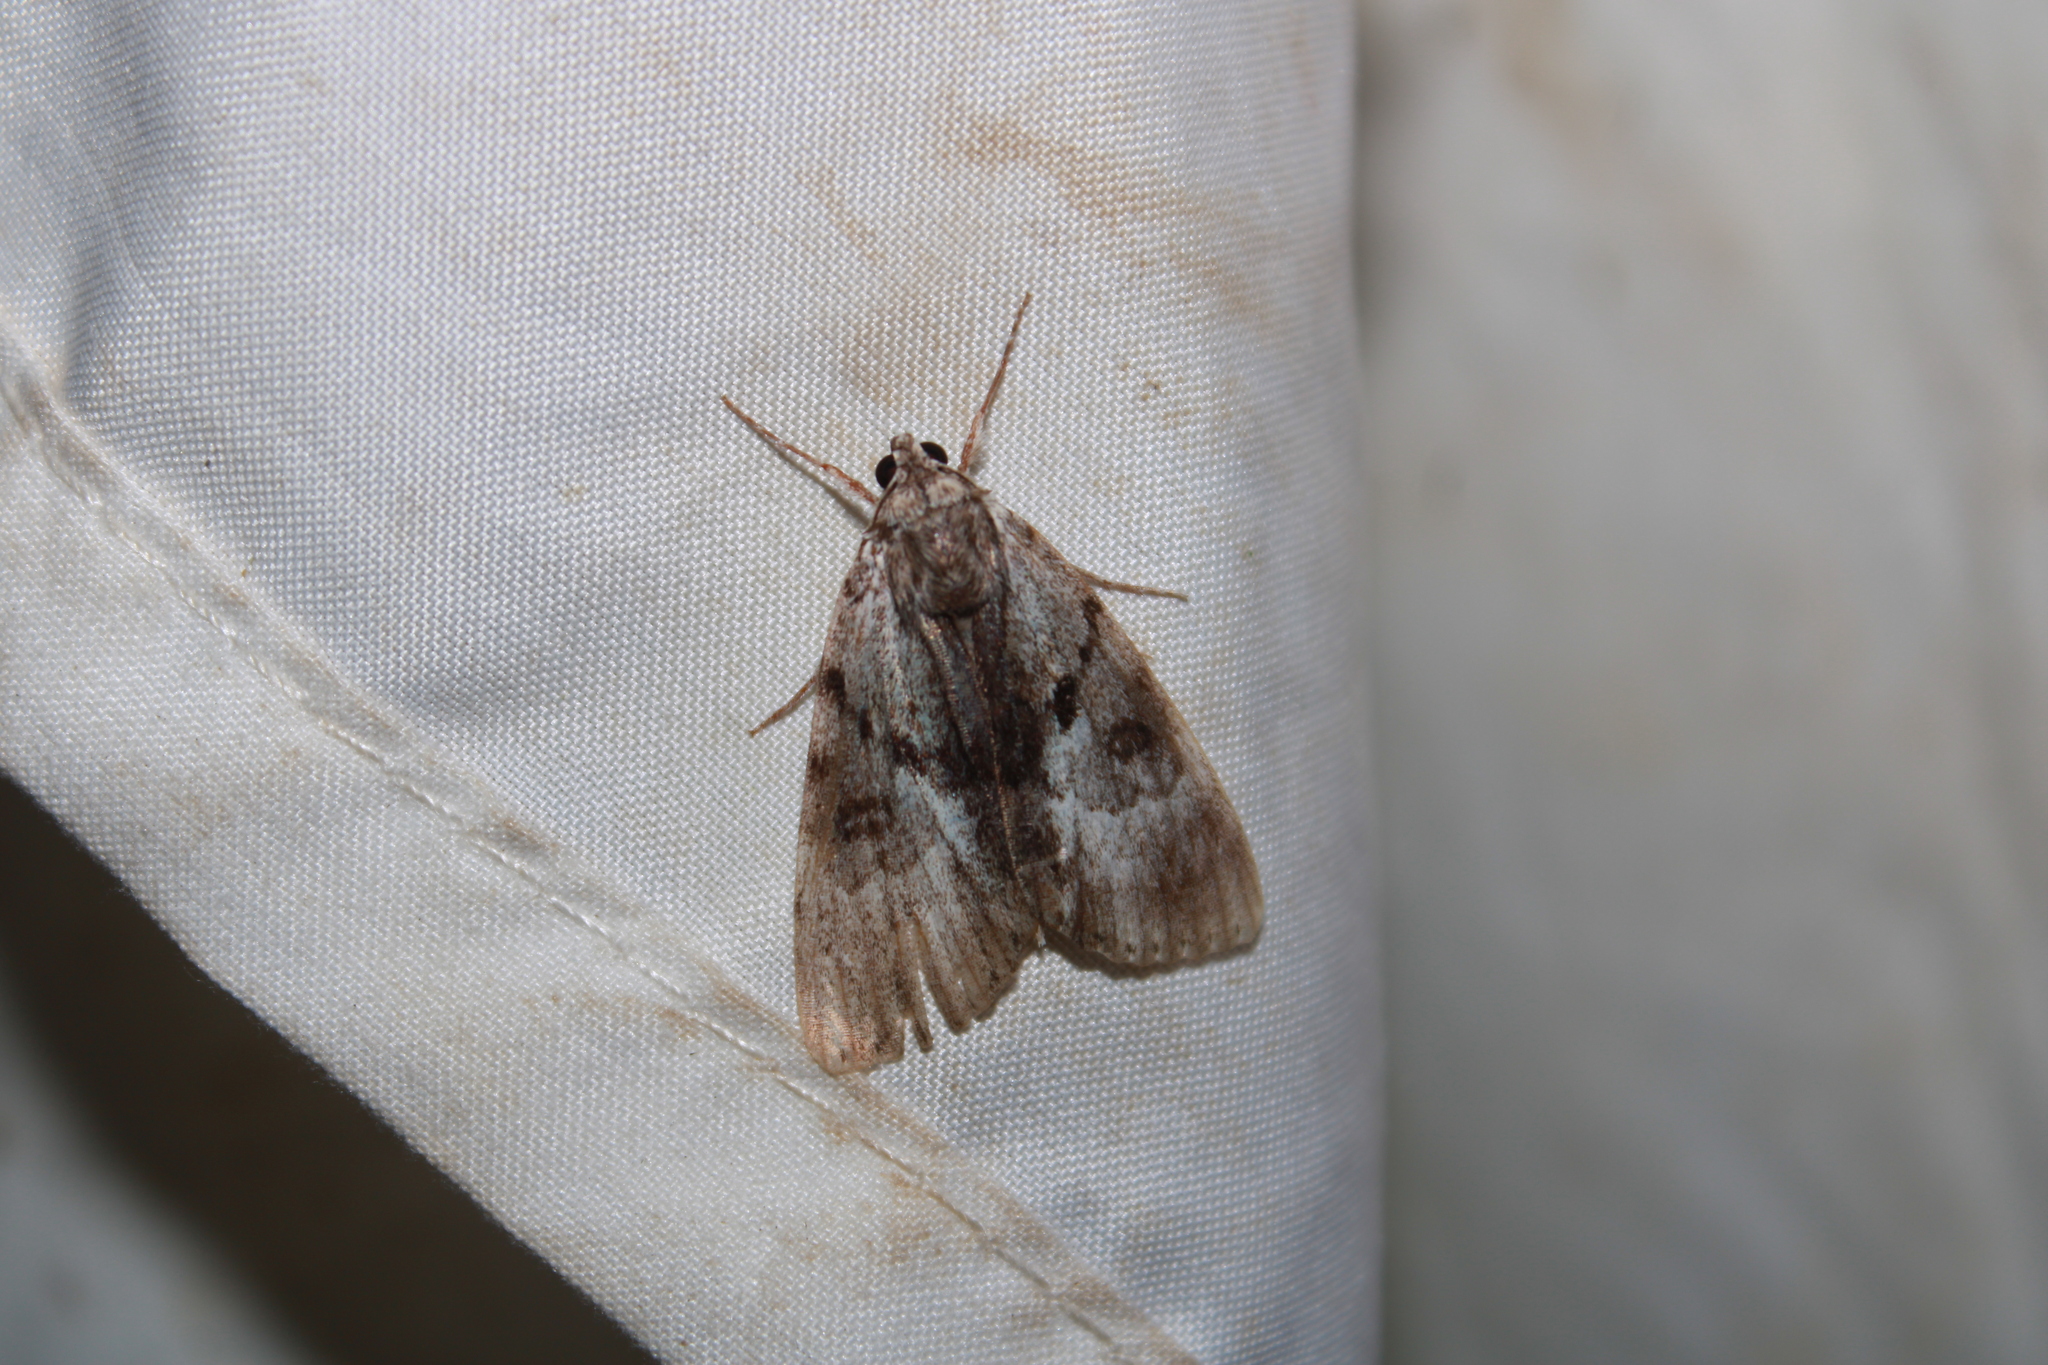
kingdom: Animalia
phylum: Arthropoda
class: Insecta
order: Lepidoptera
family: Erebidae
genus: Catocala
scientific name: Catocala andromedae
